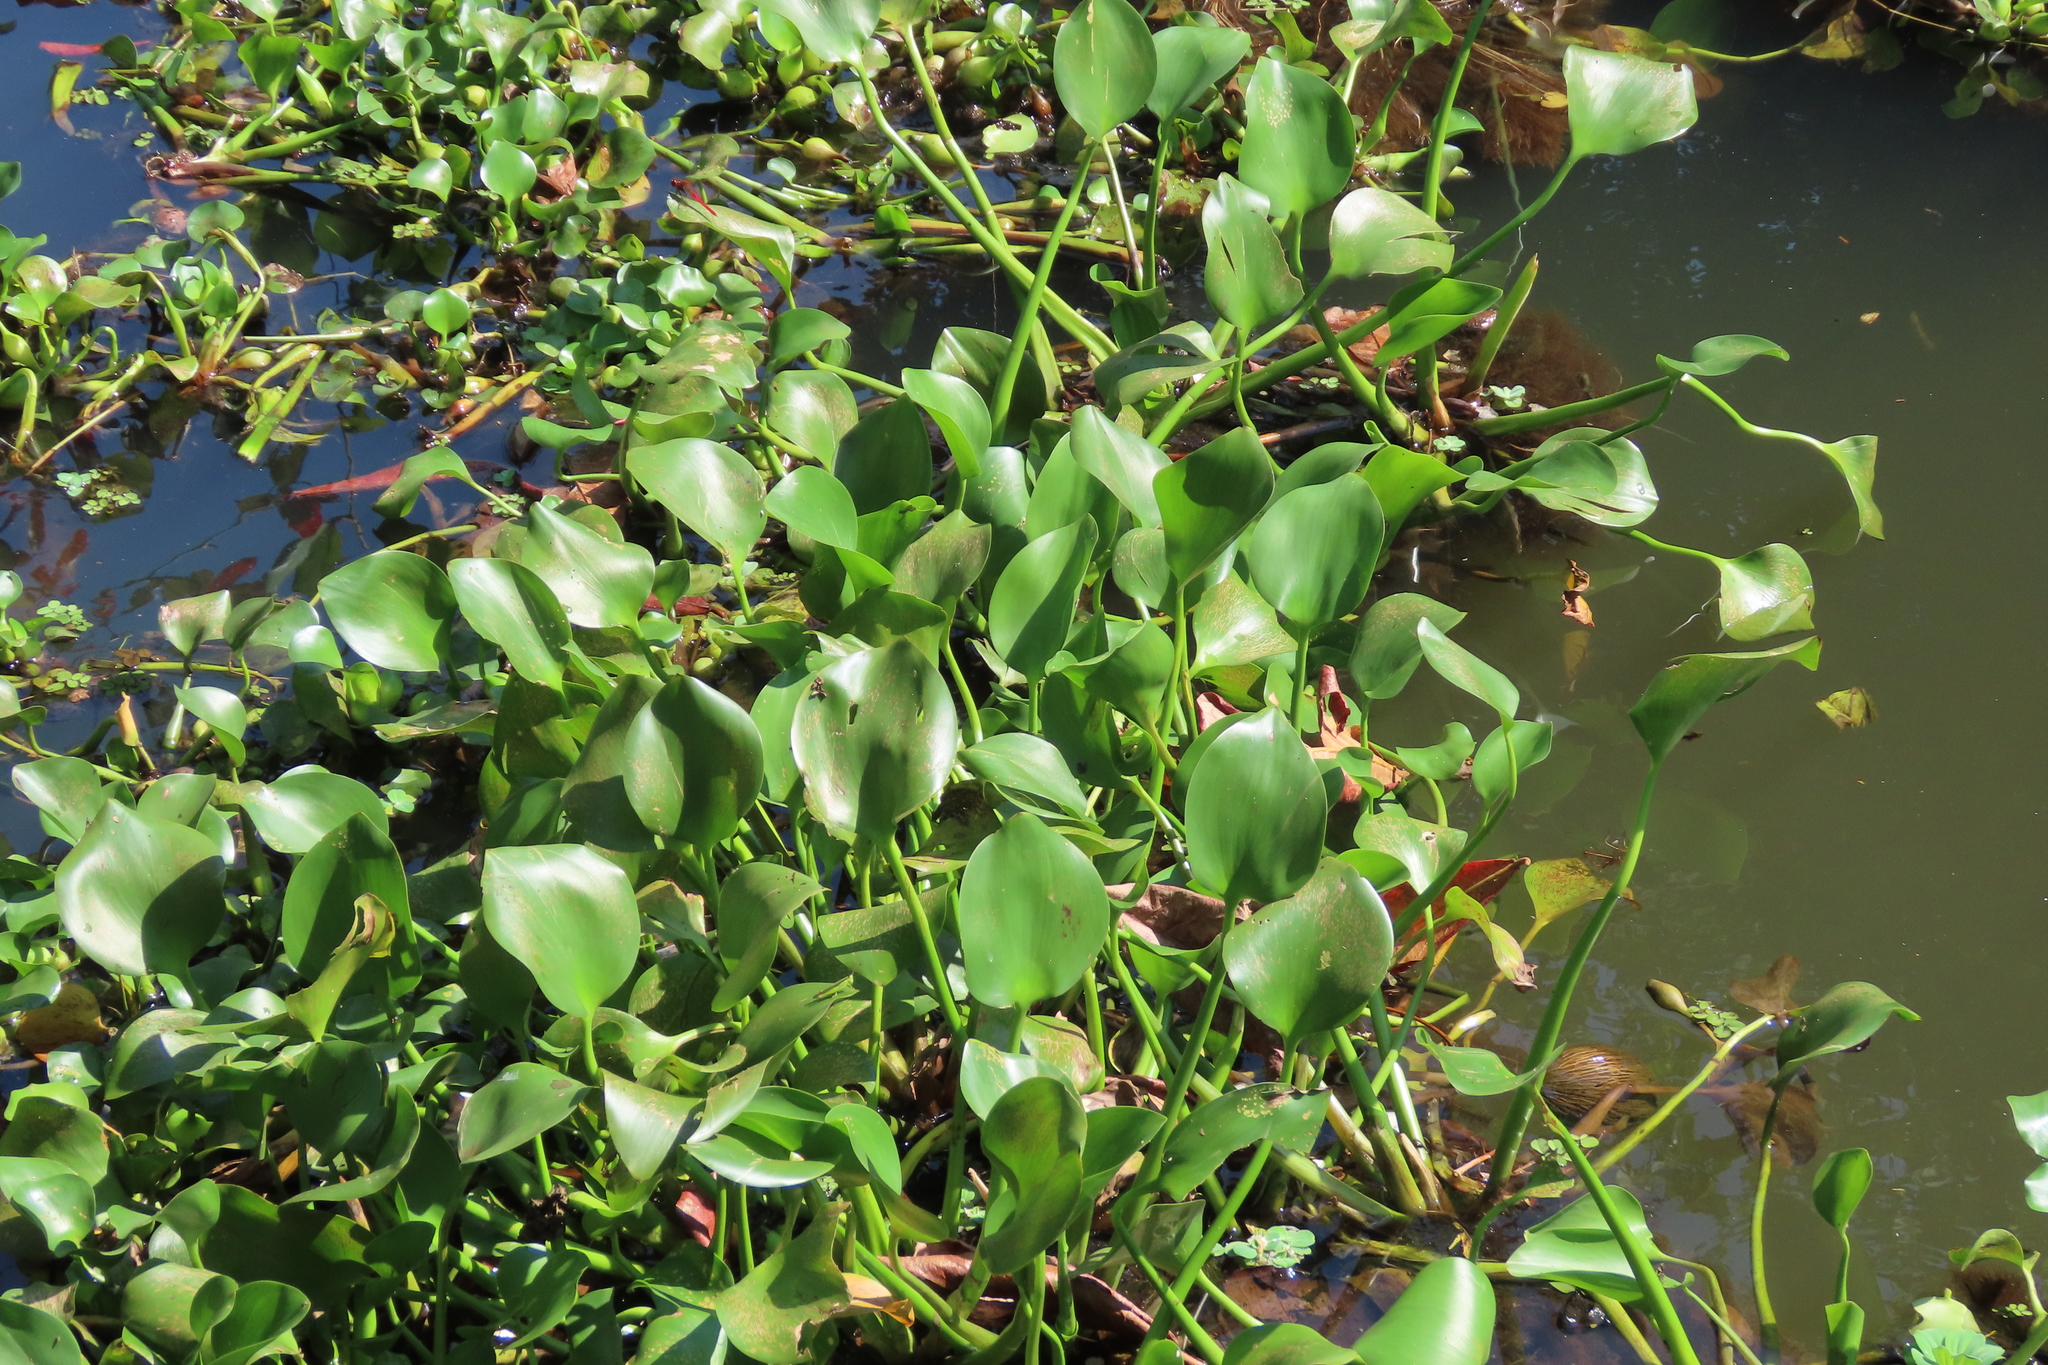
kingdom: Plantae
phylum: Tracheophyta
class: Liliopsida
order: Commelinales
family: Pontederiaceae
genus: Pontederia
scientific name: Pontederia crassipes
